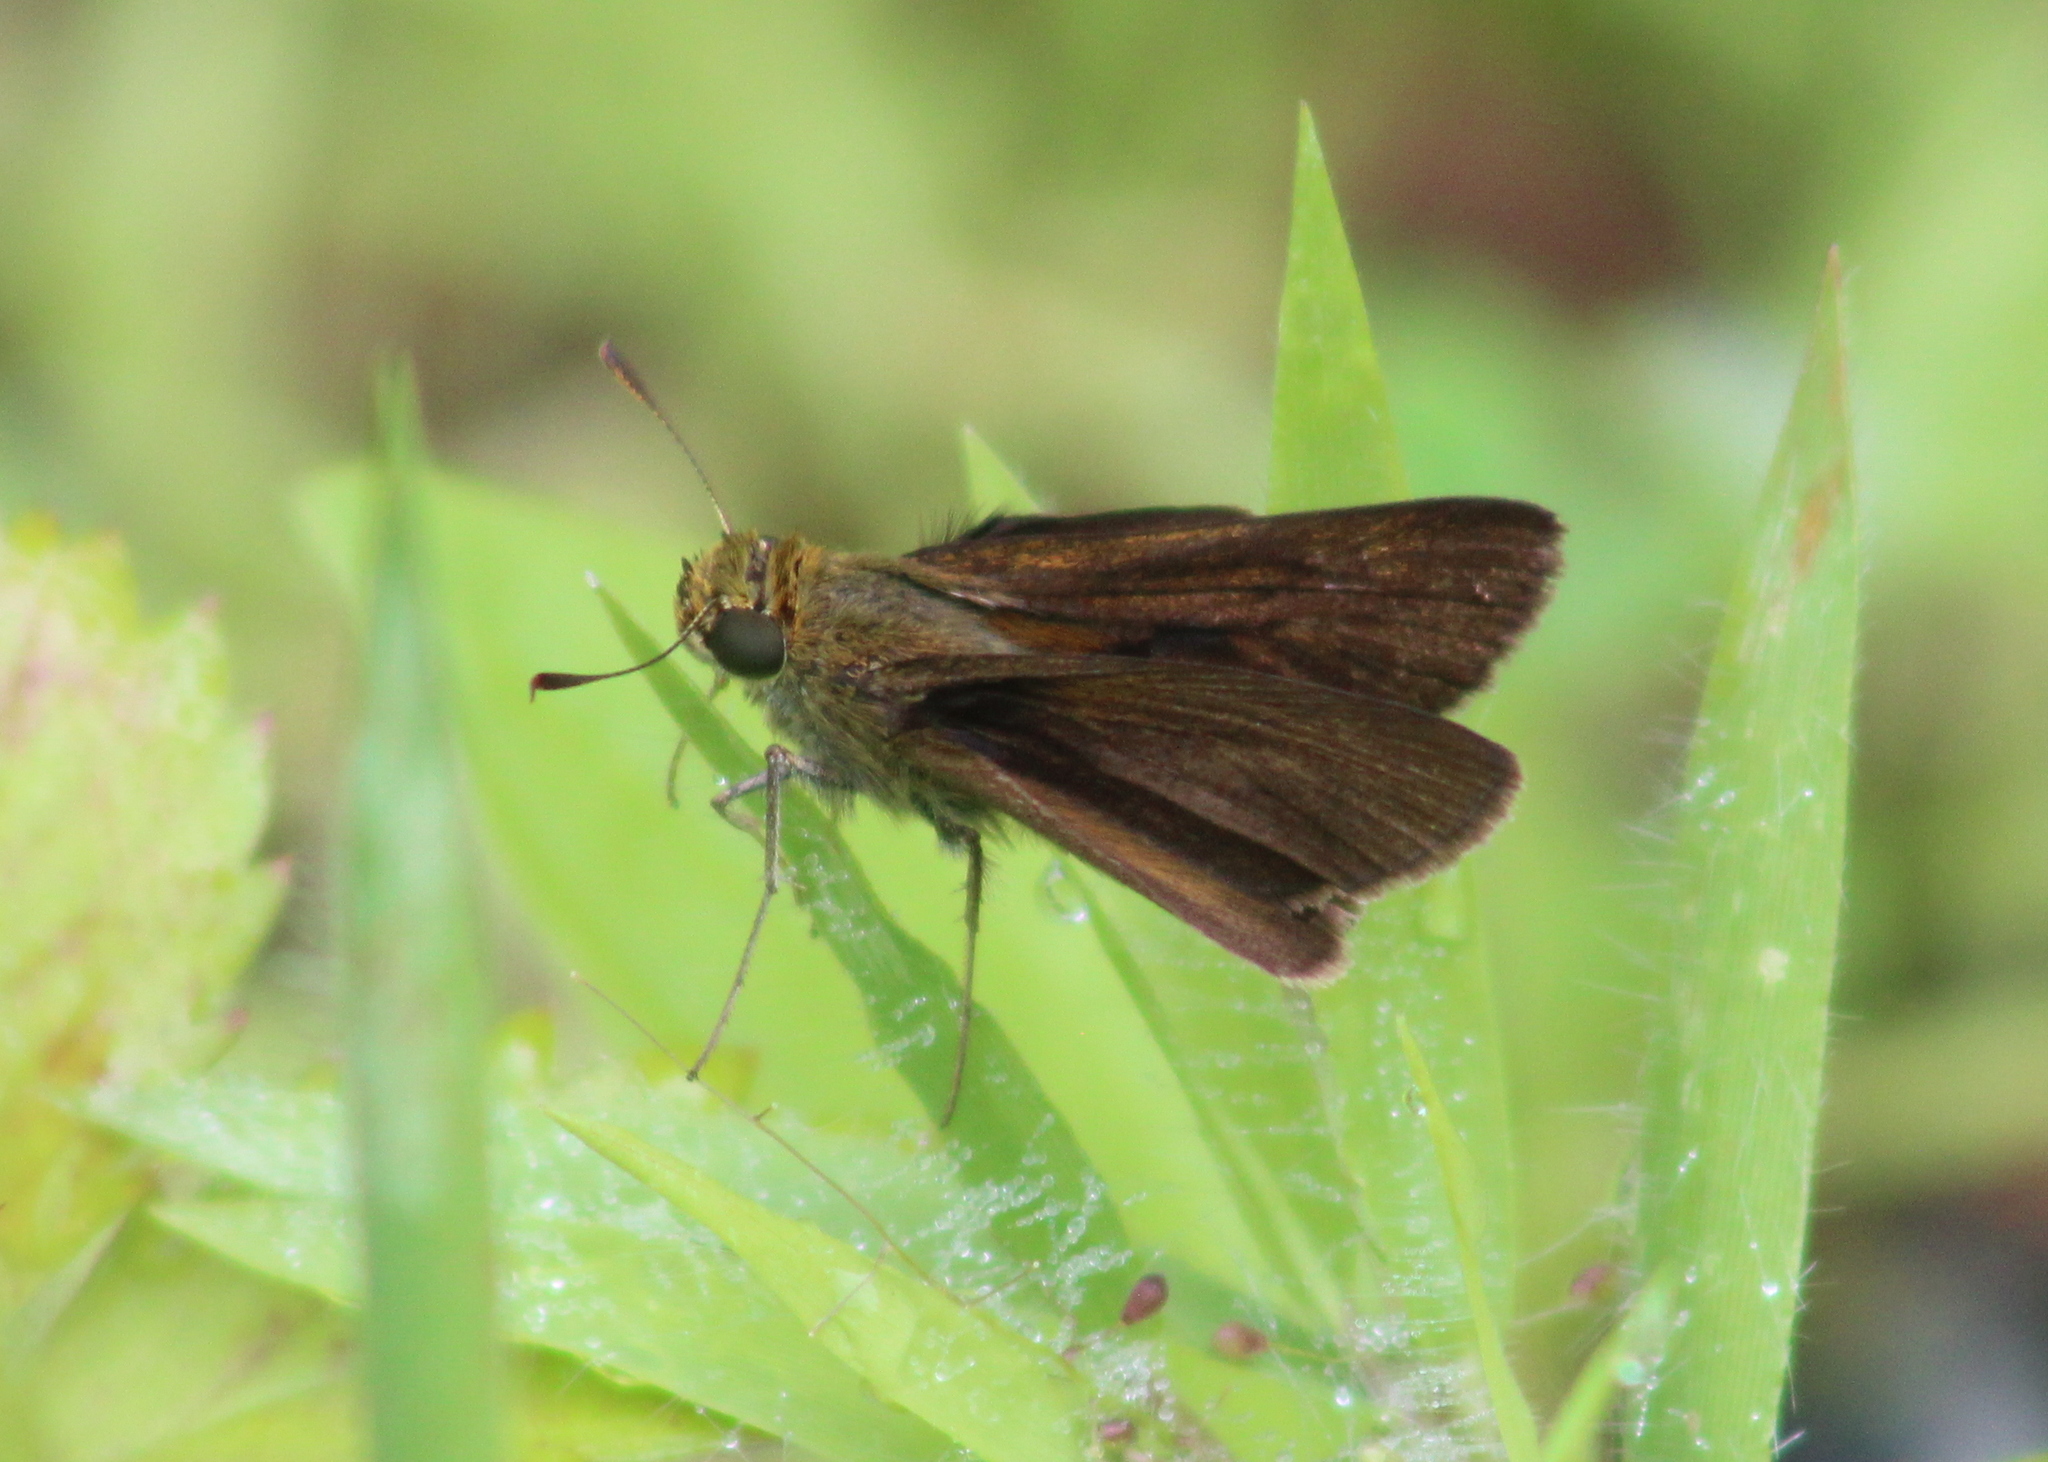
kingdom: Animalia
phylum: Arthropoda
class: Insecta
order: Lepidoptera
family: Hesperiidae
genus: Euphyes
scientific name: Euphyes vestris
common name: Dun skipper
